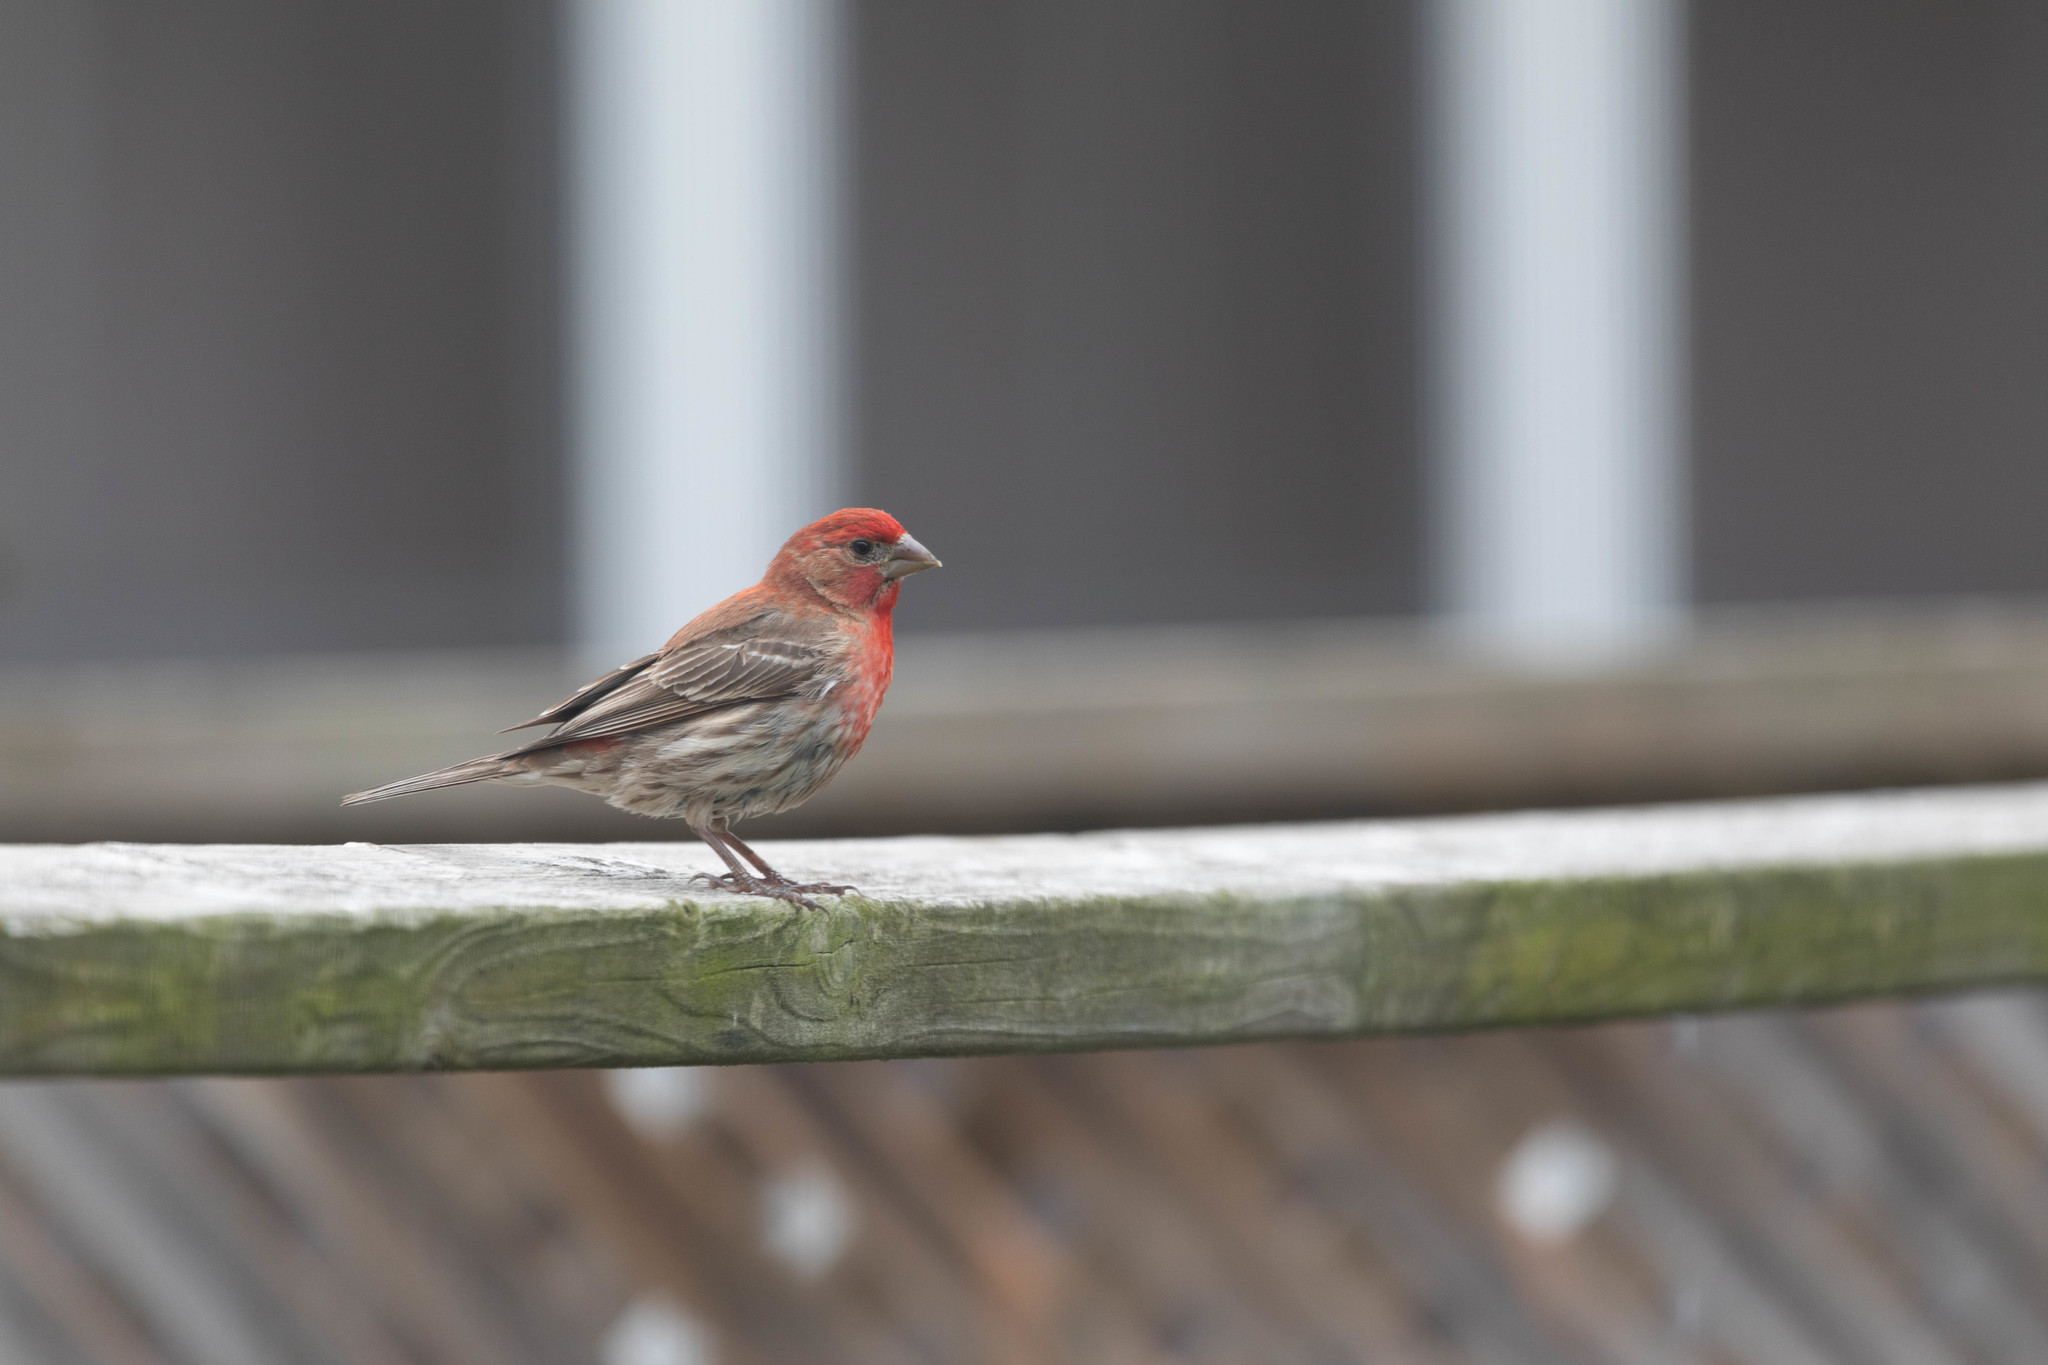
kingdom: Animalia
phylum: Chordata
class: Aves
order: Passeriformes
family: Fringillidae
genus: Haemorhous
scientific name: Haemorhous mexicanus
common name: House finch
